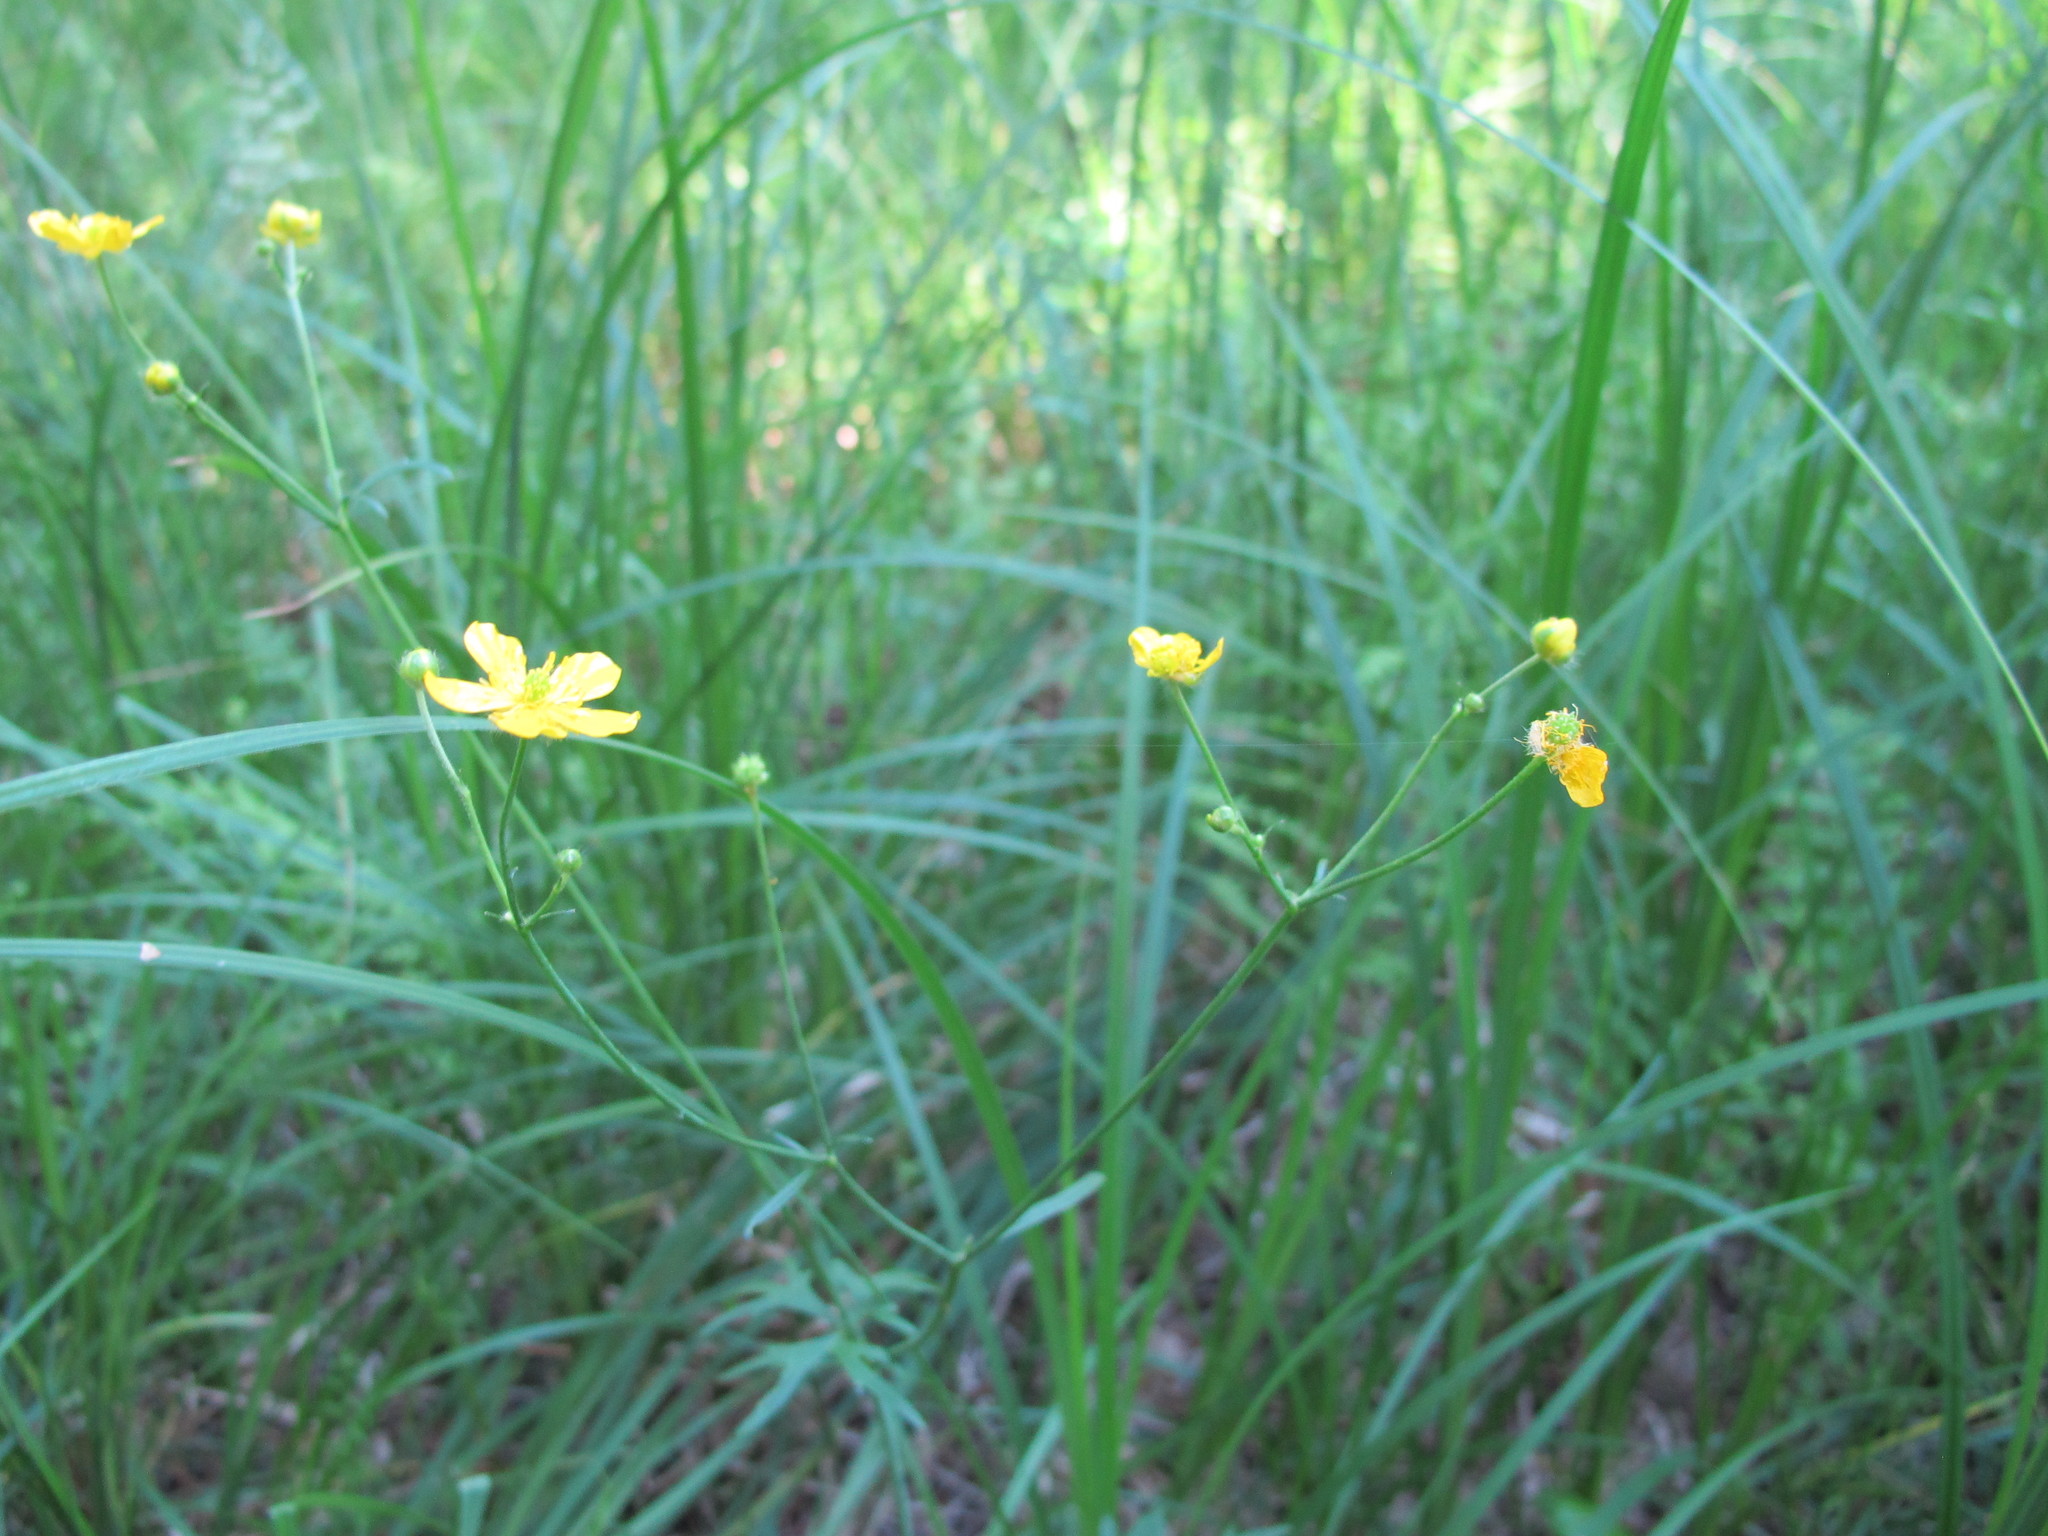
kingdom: Plantae
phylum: Tracheophyta
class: Magnoliopsida
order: Ranunculales
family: Ranunculaceae
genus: Ranunculus
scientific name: Ranunculus acris
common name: Meadow buttercup
